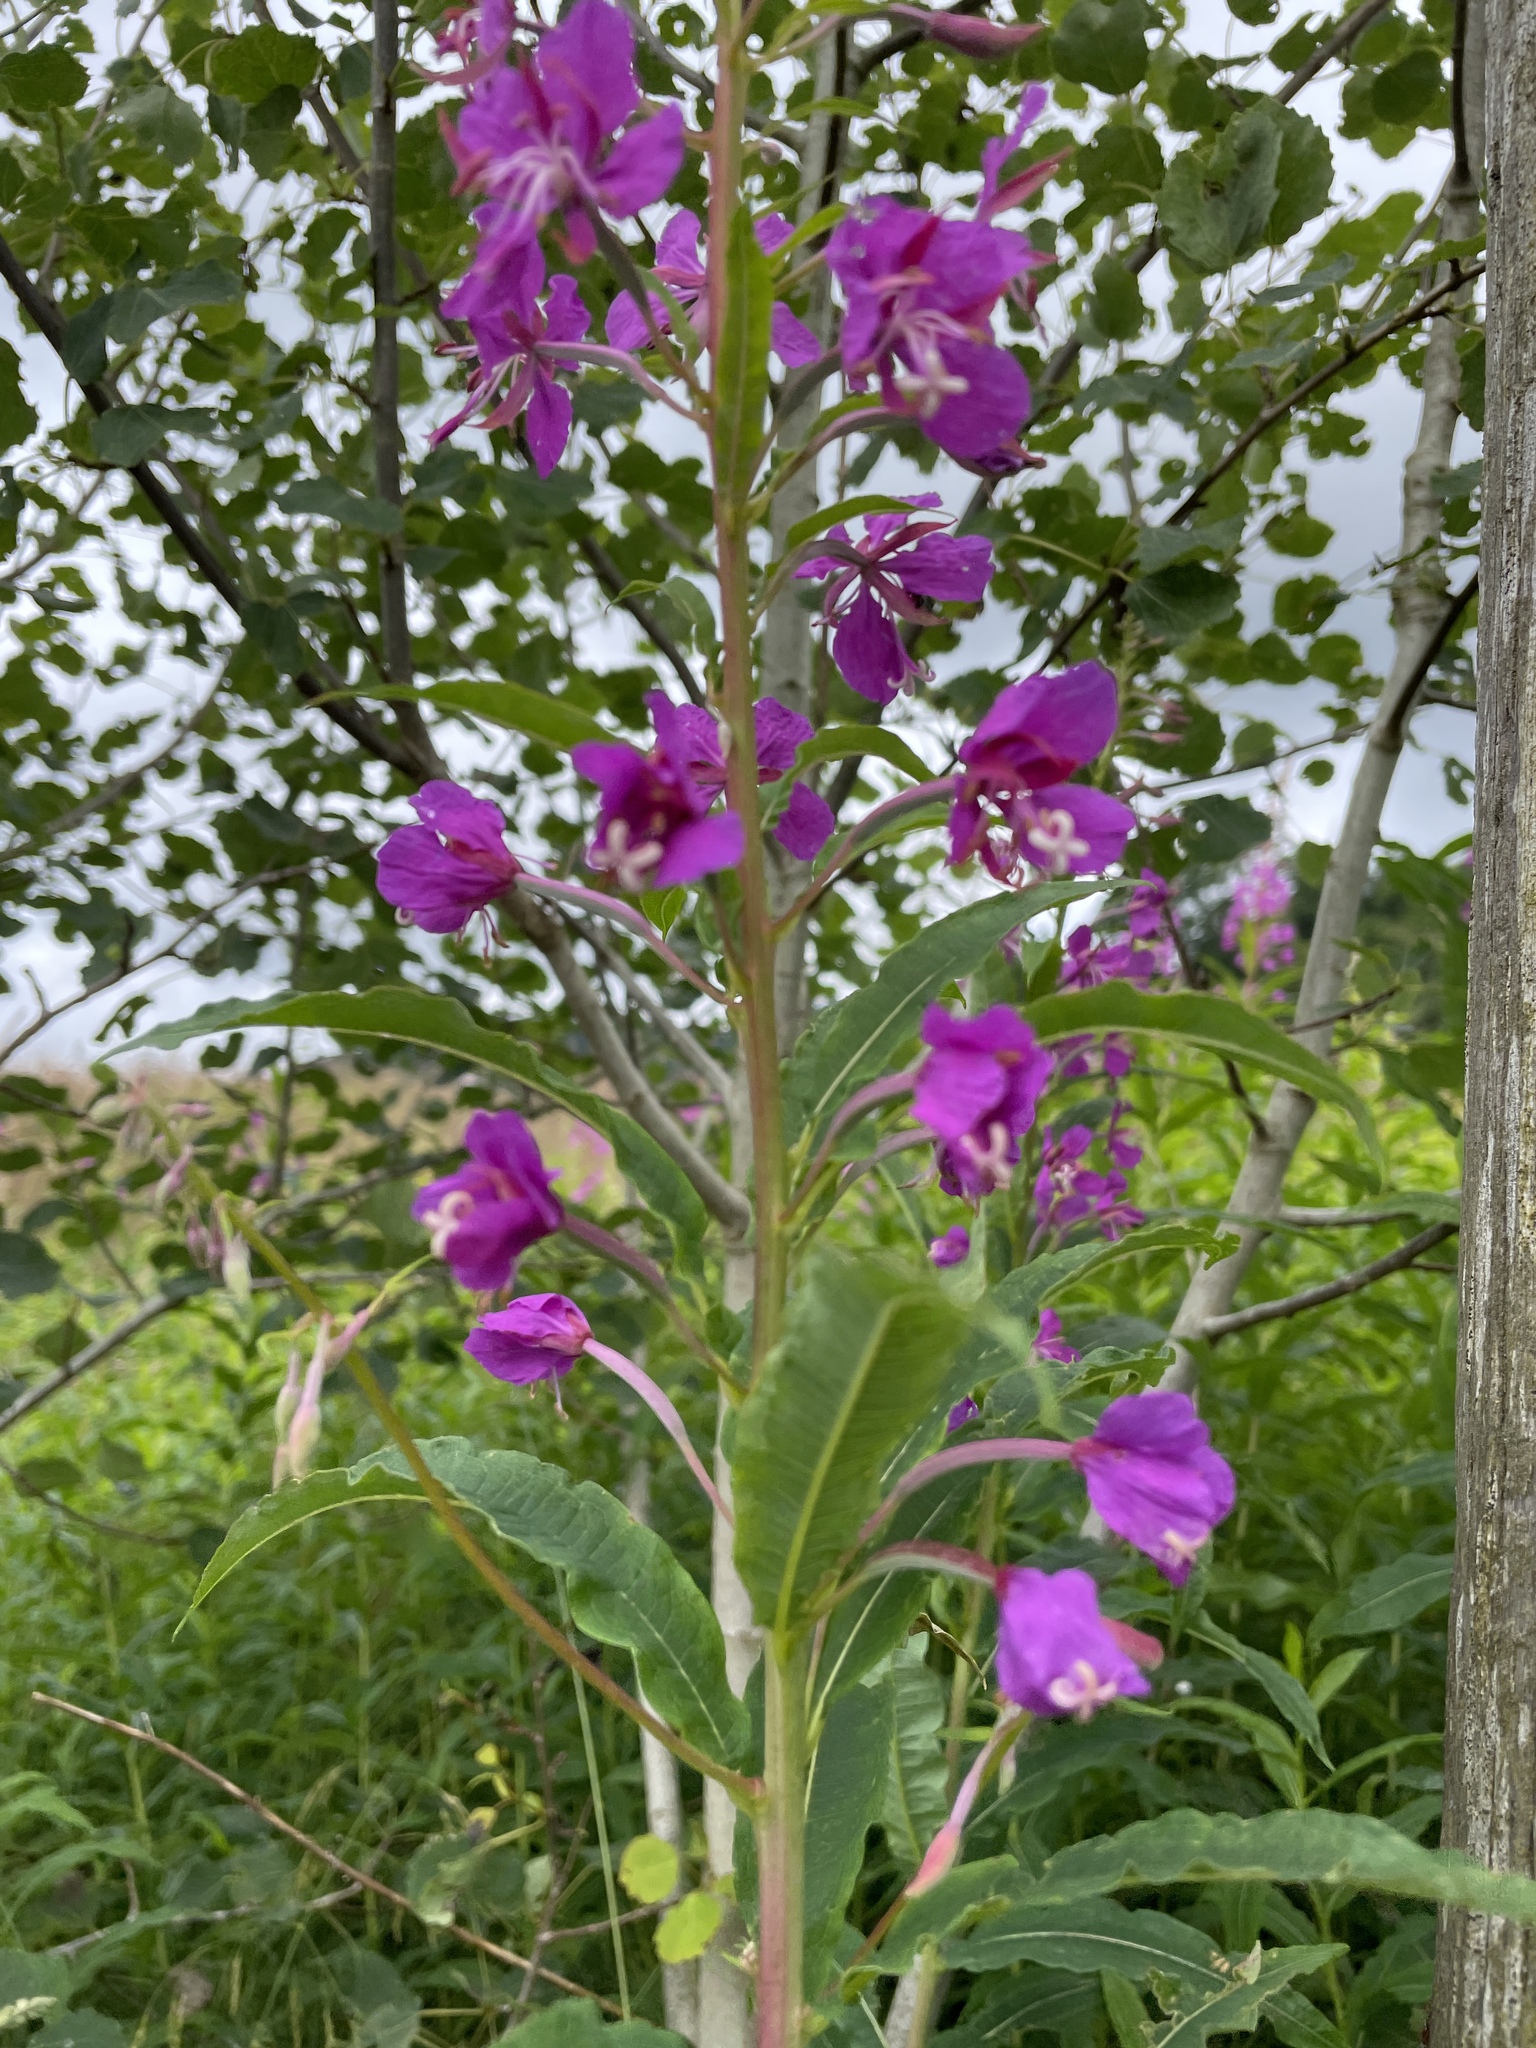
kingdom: Plantae
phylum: Tracheophyta
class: Magnoliopsida
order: Myrtales
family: Onagraceae
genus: Chamaenerion
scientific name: Chamaenerion angustifolium
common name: Fireweed
